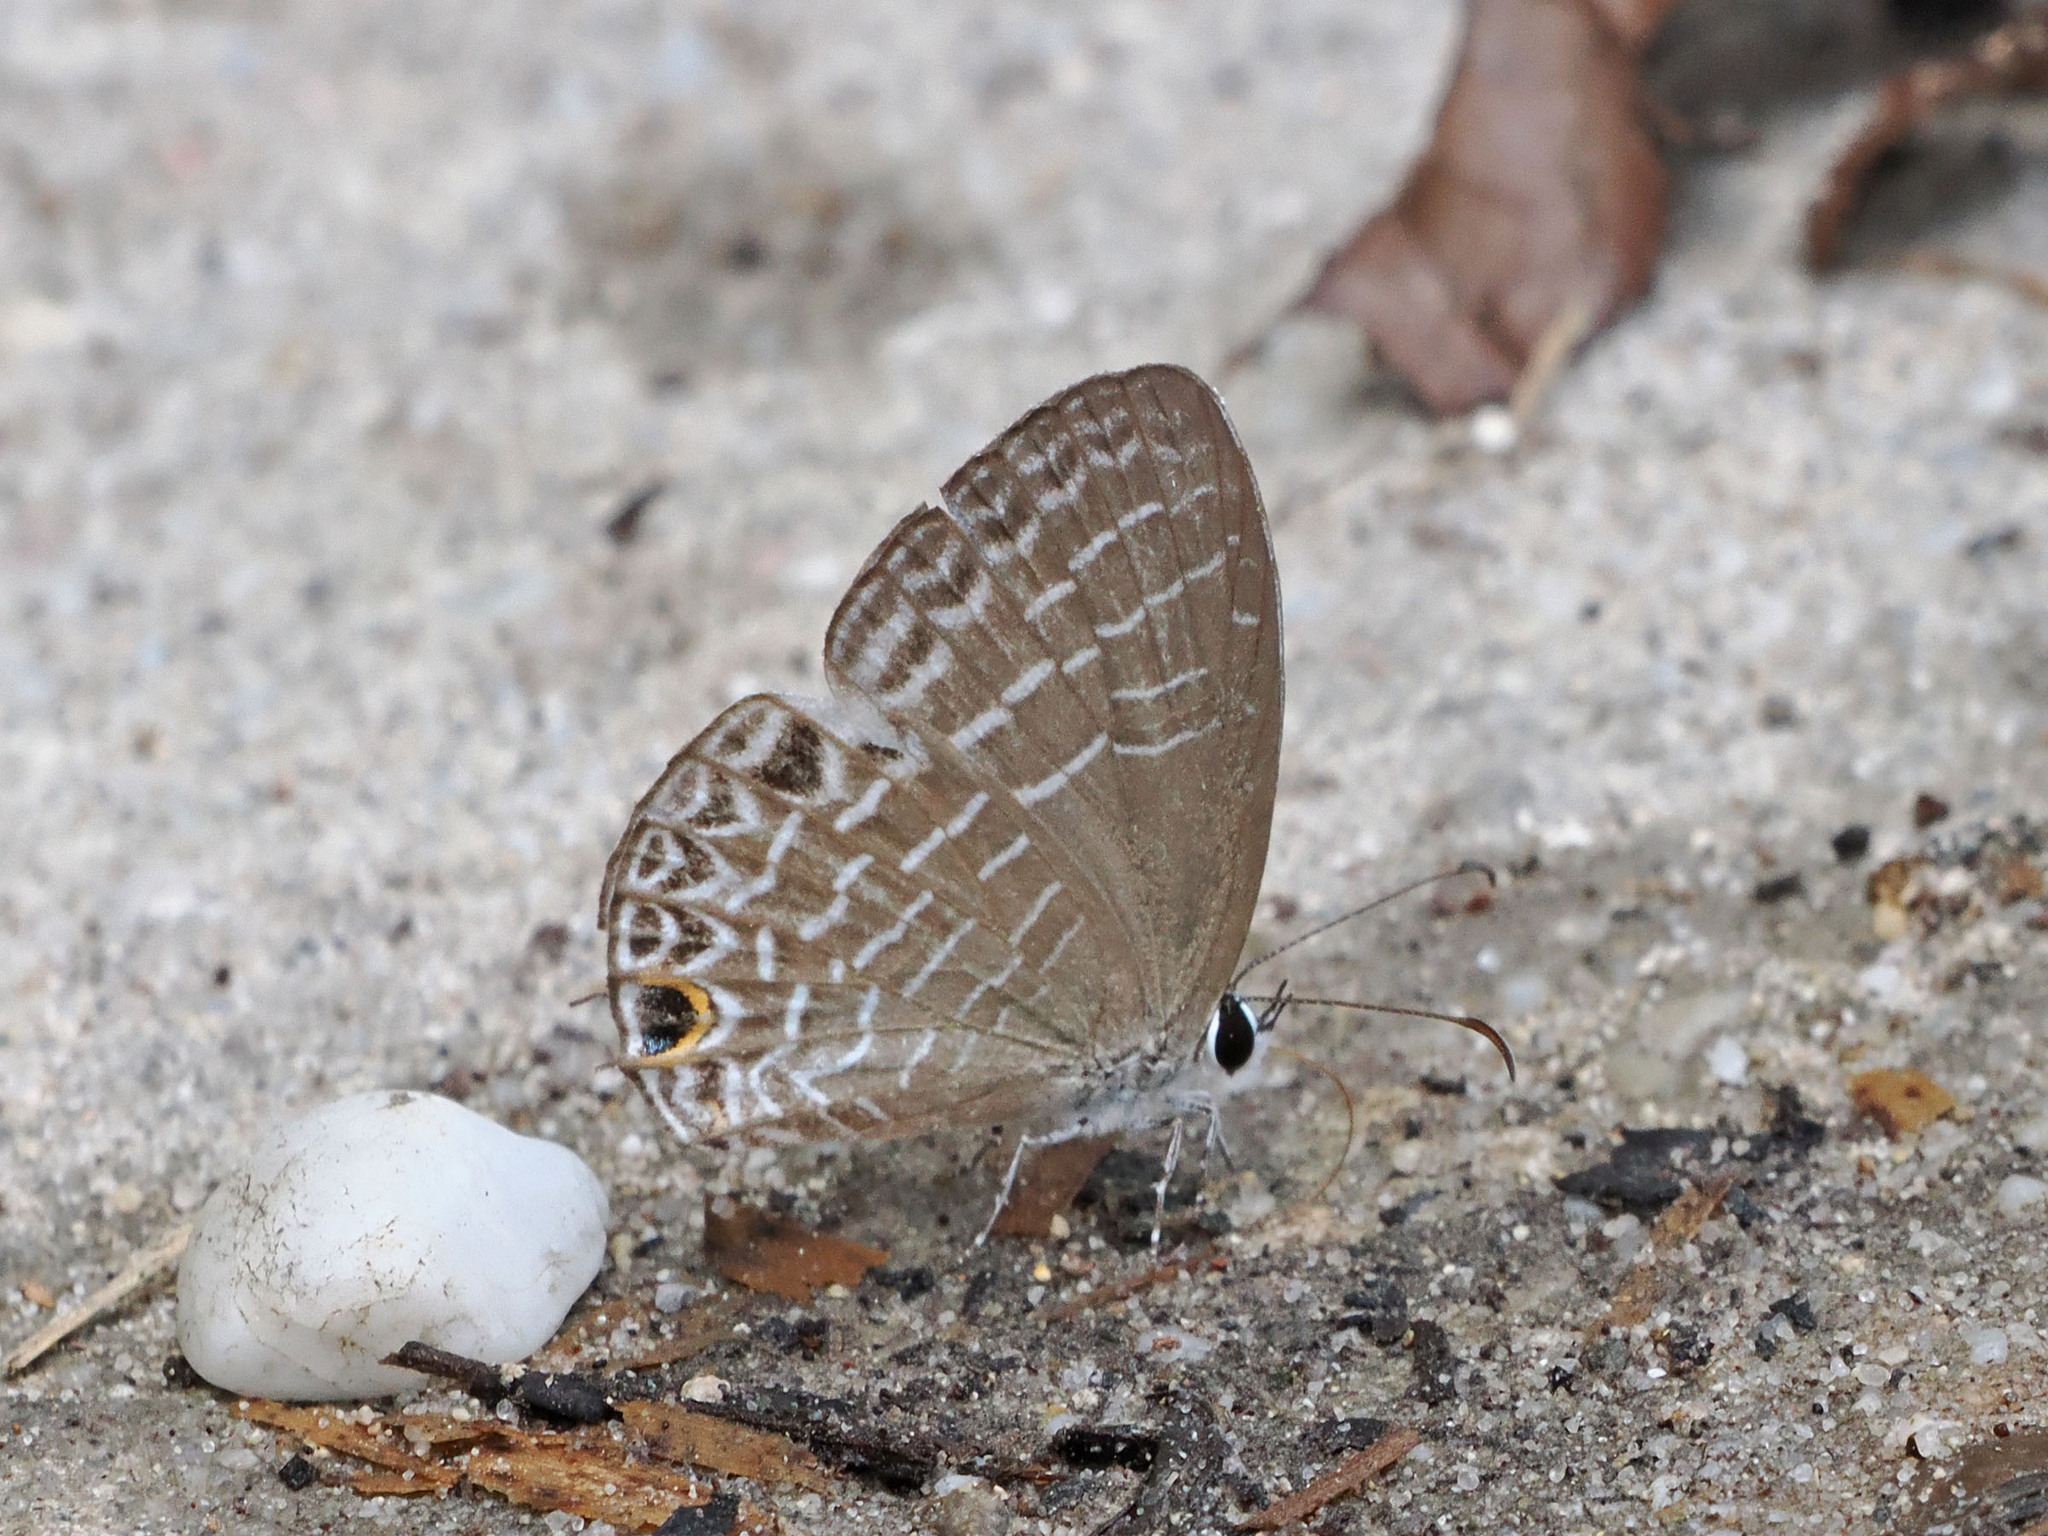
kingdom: Animalia
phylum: Arthropoda
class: Insecta
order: Lepidoptera
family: Lycaenidae
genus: Jamides
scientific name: Jamides
